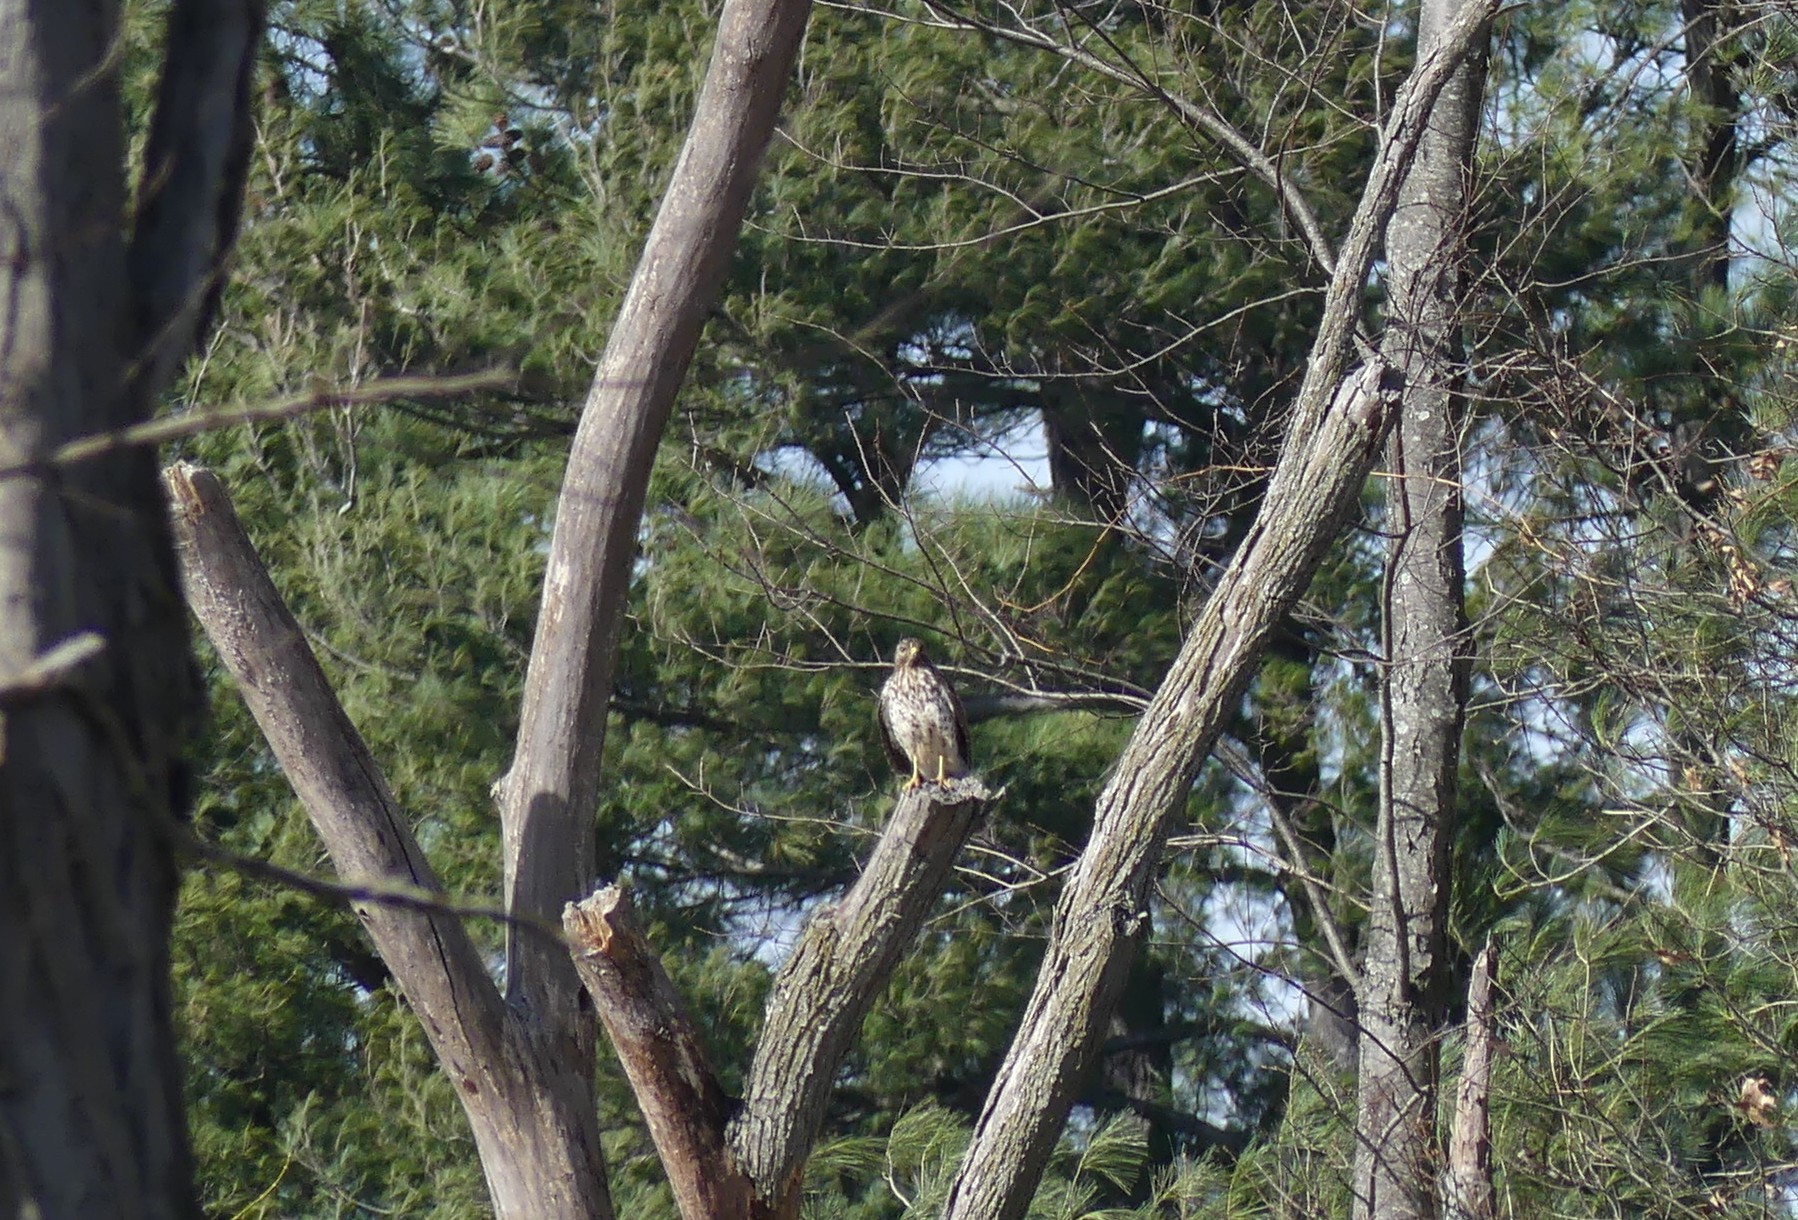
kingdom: Animalia
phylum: Chordata
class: Aves
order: Accipitriformes
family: Accipitridae
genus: Buteo
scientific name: Buteo lineatus
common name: Red-shouldered hawk
